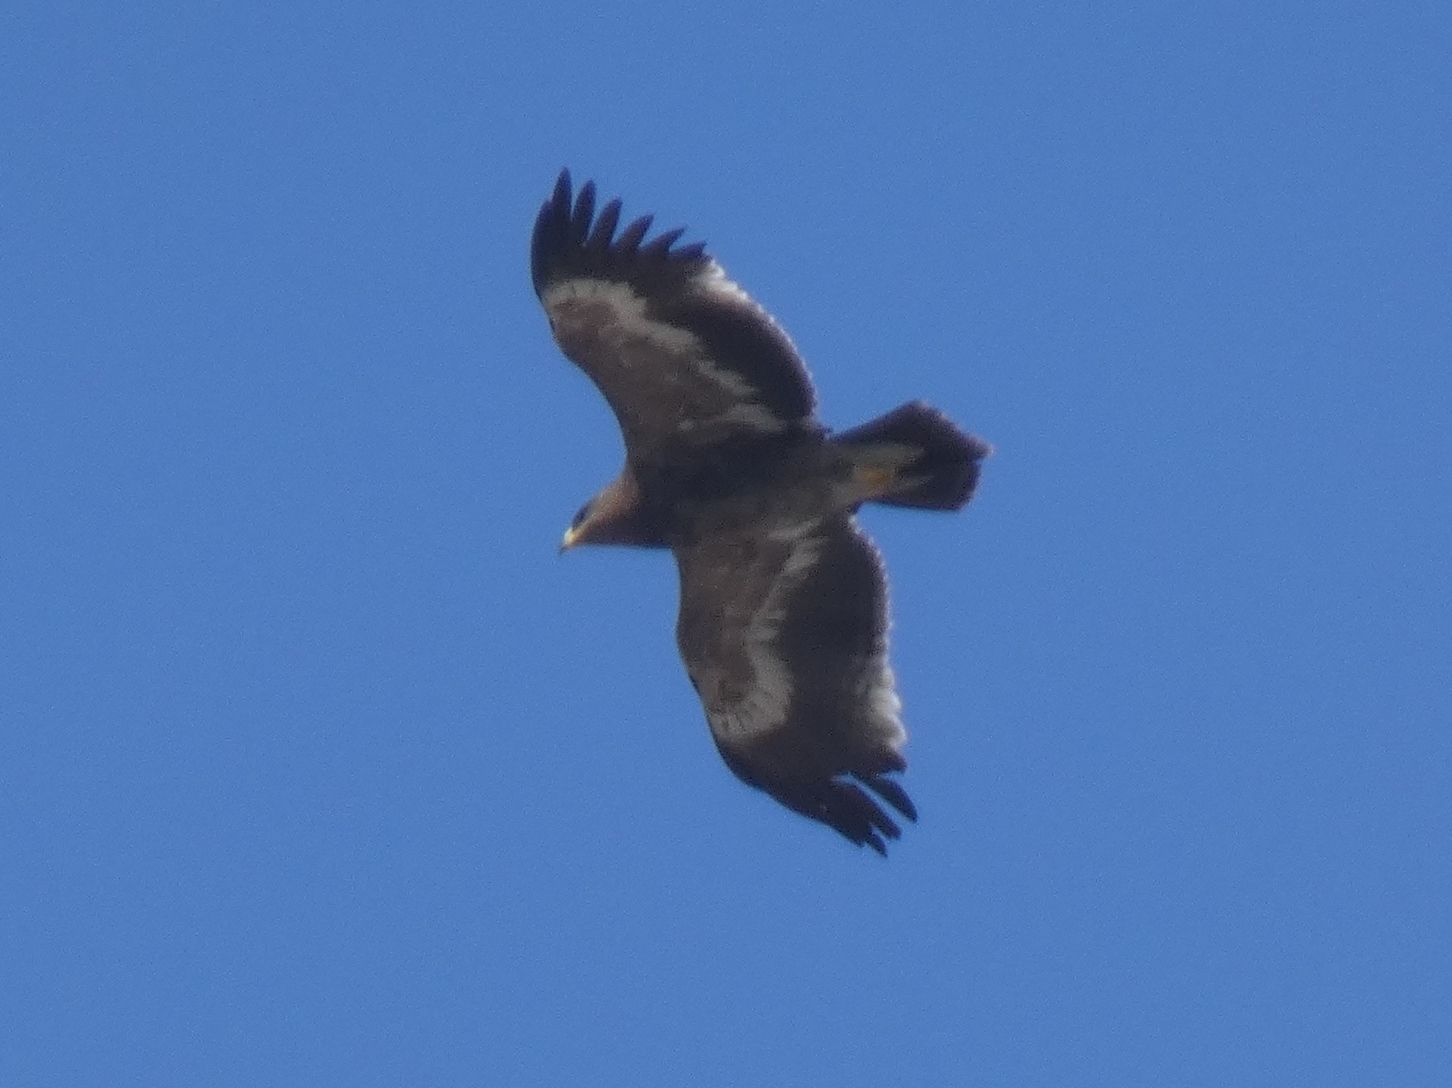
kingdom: Animalia
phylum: Chordata
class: Aves
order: Accipitriformes
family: Accipitridae
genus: Aquila
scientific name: Aquila nipalensis
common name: Steppe eagle
